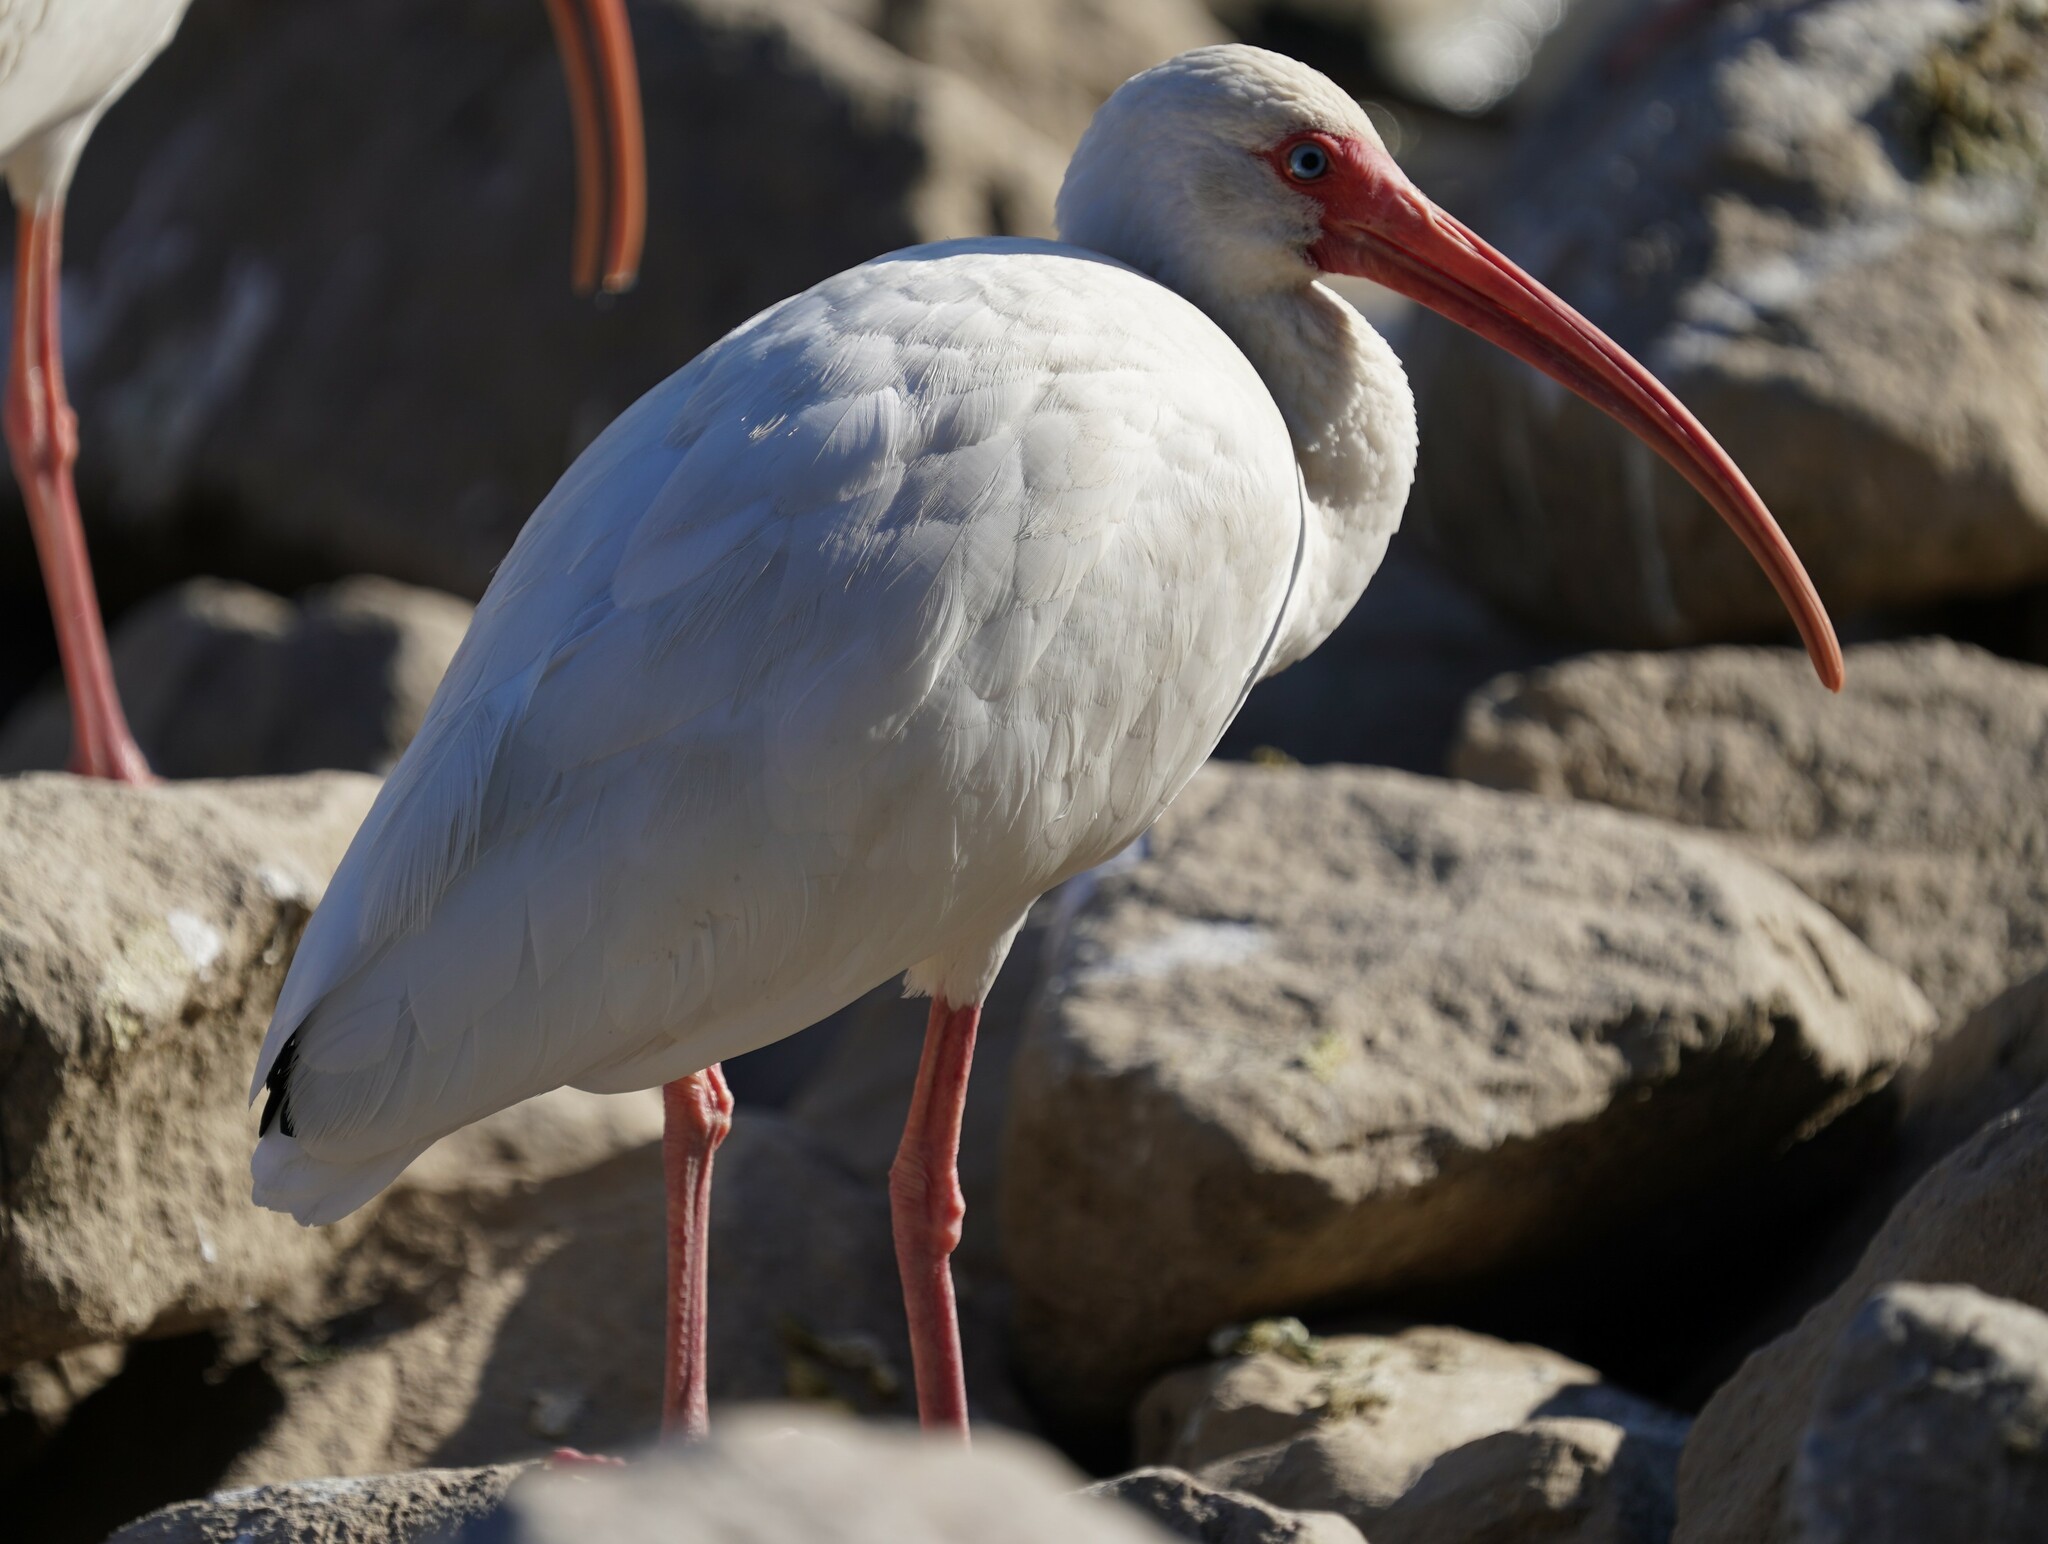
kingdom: Animalia
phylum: Chordata
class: Aves
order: Pelecaniformes
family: Threskiornithidae
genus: Eudocimus
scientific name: Eudocimus albus
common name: White ibis
